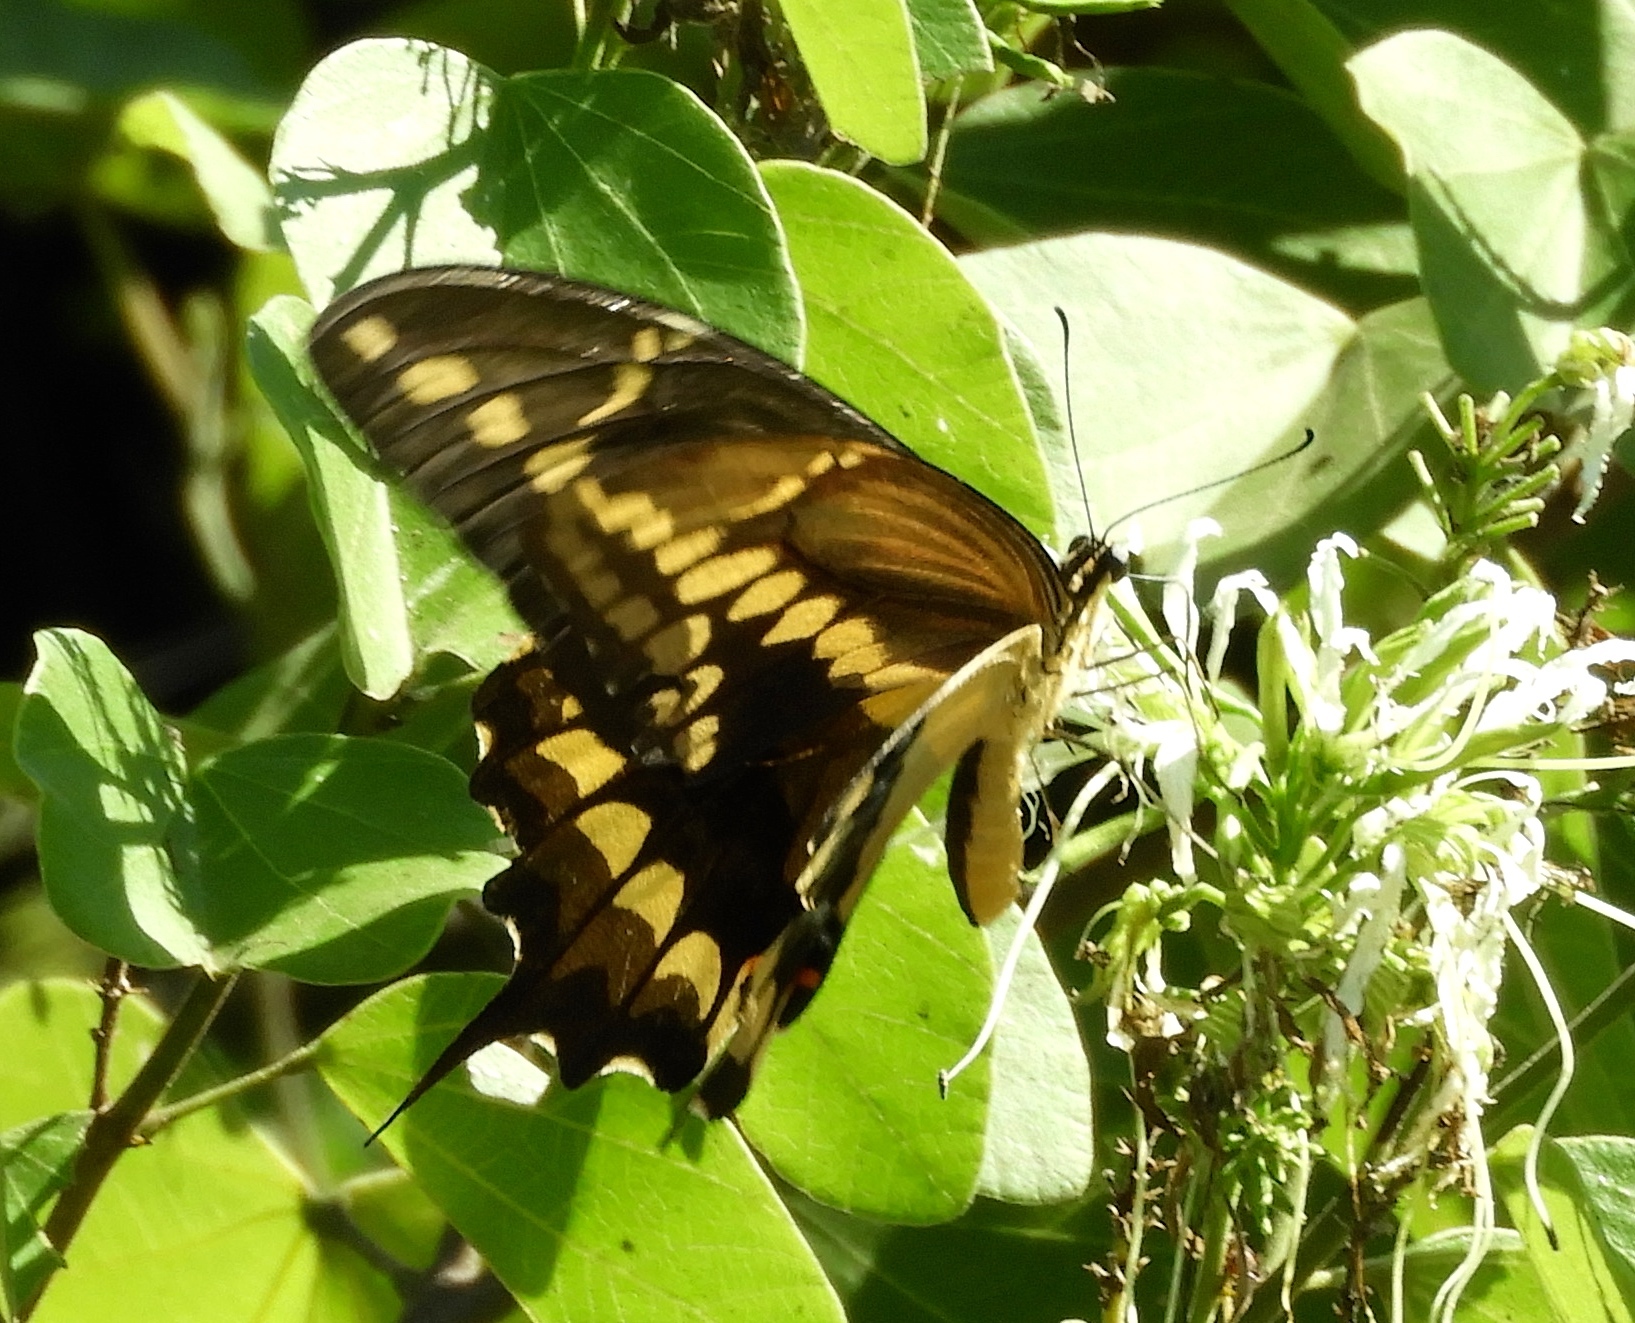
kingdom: Animalia
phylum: Arthropoda
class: Insecta
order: Lepidoptera
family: Papilionidae
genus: Papilio
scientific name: Papilio rumiko
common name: Western giant swallowtail
